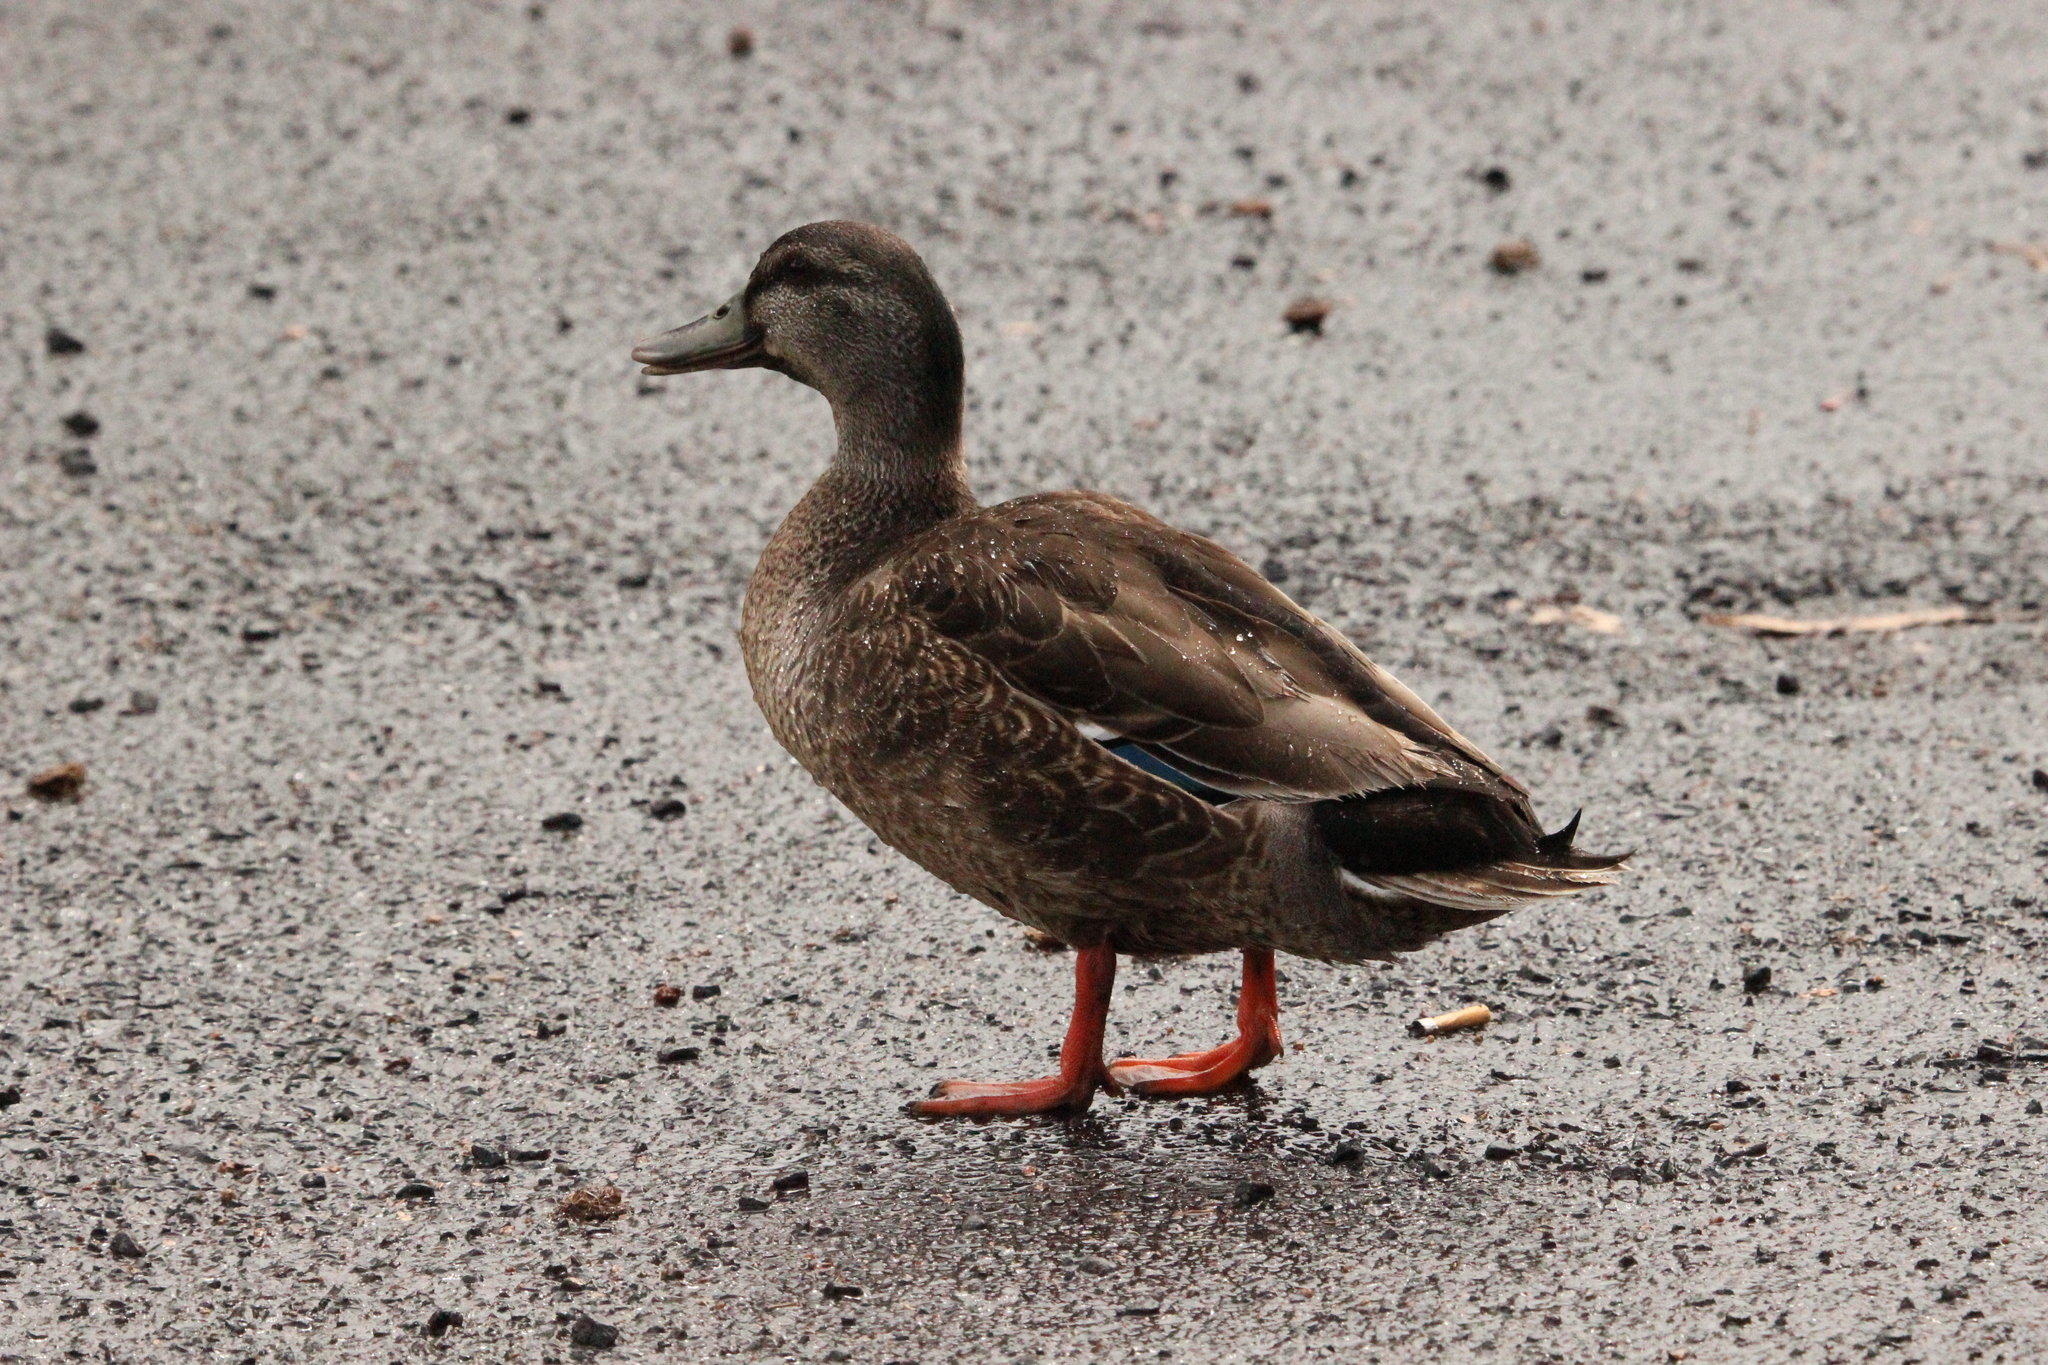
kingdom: Animalia
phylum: Chordata
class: Aves
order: Anseriformes
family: Anatidae
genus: Anas
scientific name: Anas
